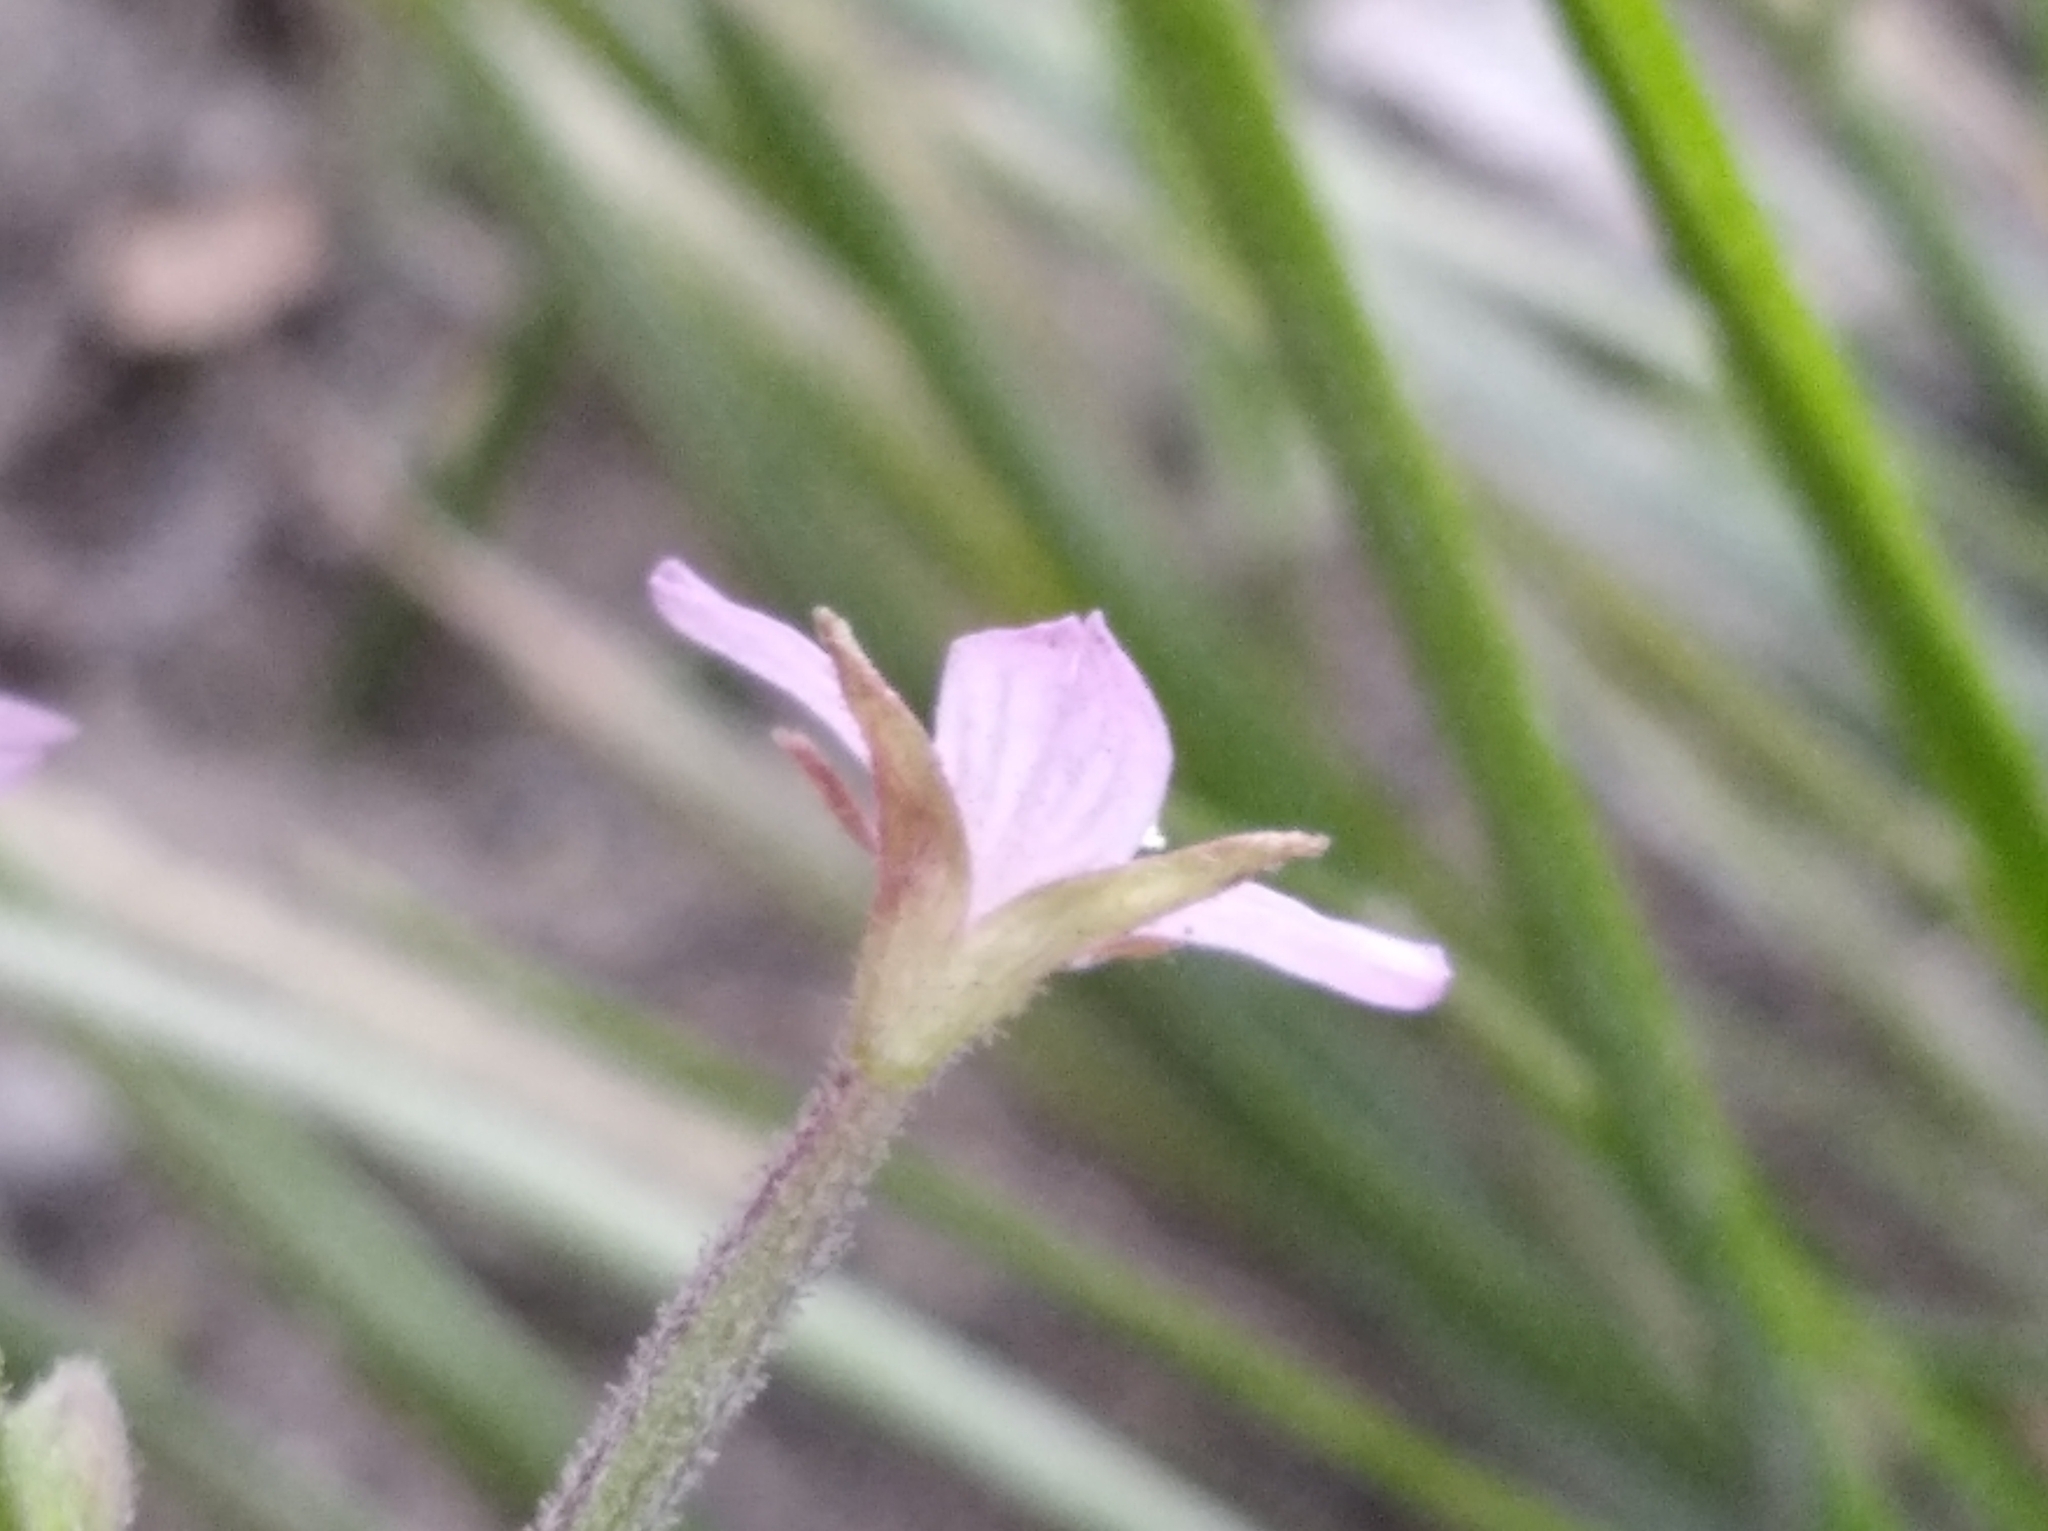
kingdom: Plantae
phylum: Tracheophyta
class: Magnoliopsida
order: Myrtales
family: Onagraceae
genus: Epilobium
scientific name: Epilobium ciliatum
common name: American willowherb
